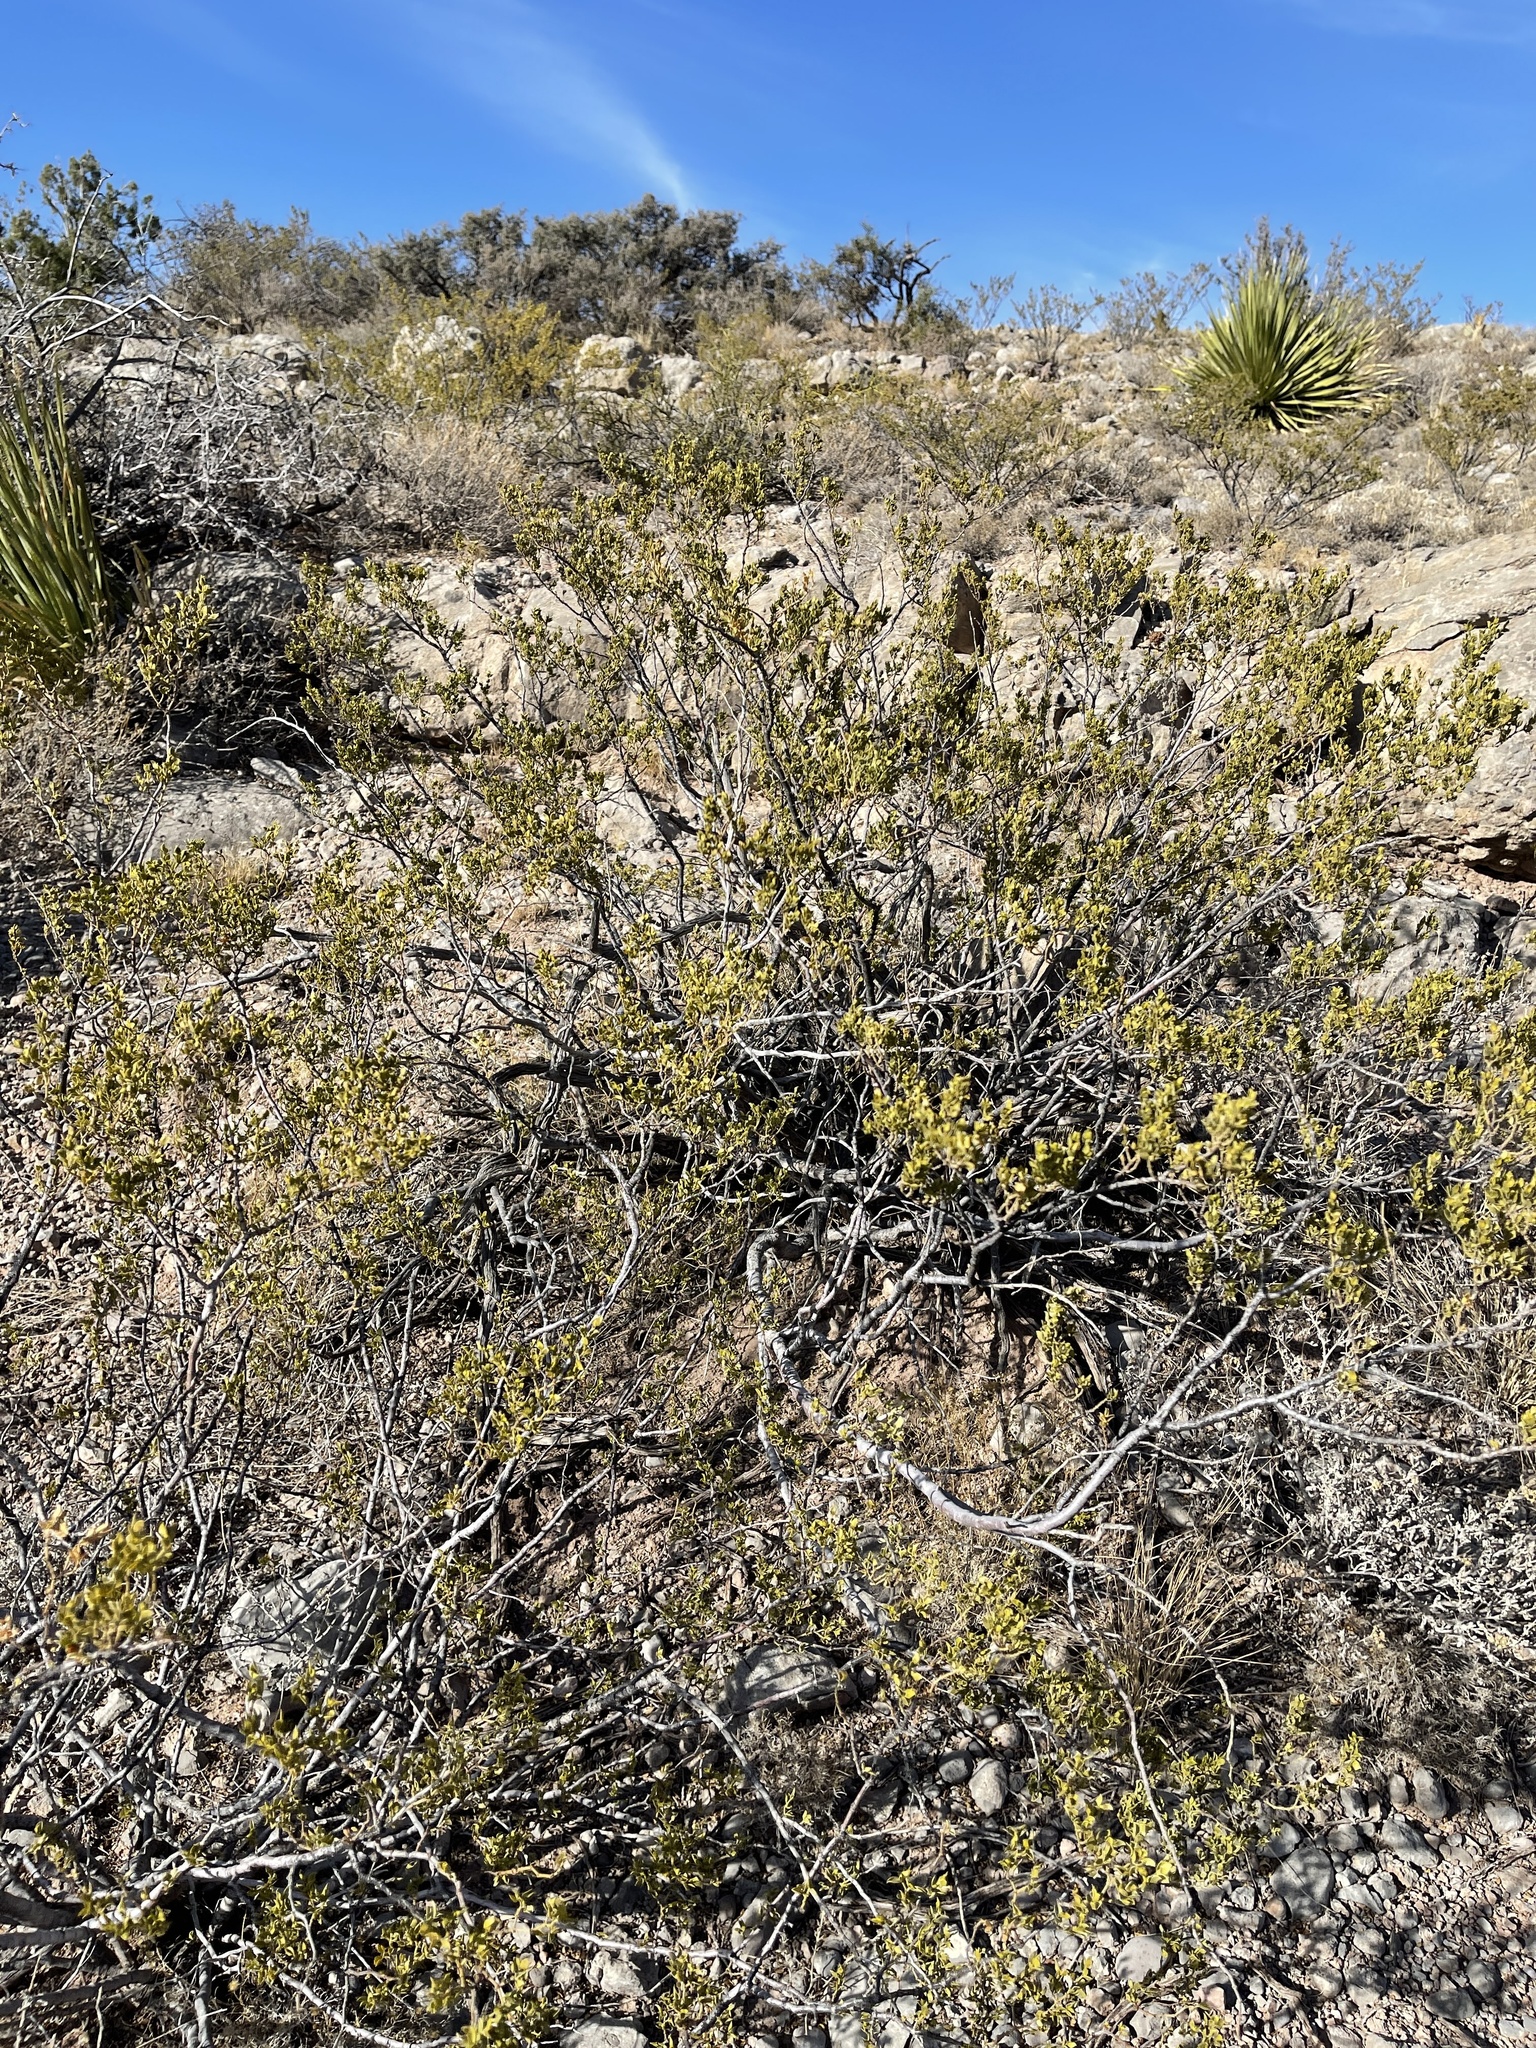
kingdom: Plantae
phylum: Tracheophyta
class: Magnoliopsida
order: Zygophyllales
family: Zygophyllaceae
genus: Larrea
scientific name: Larrea tridentata
